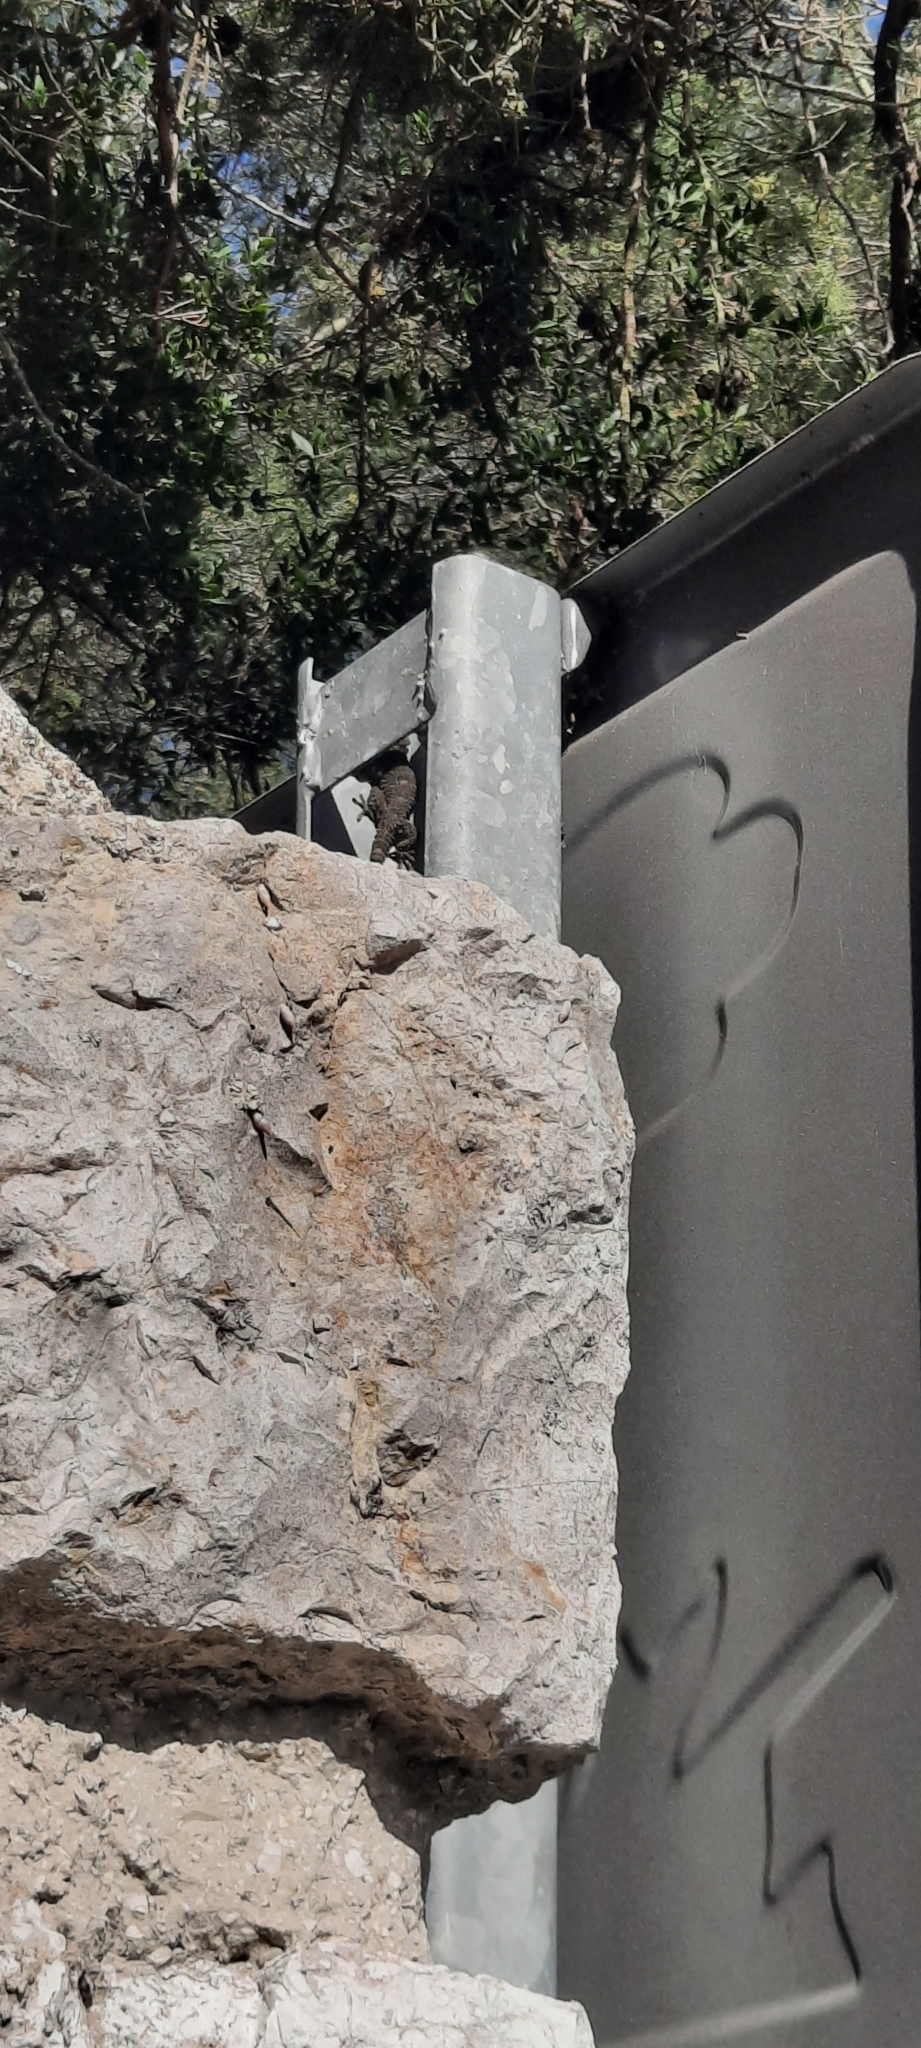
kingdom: Animalia
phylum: Chordata
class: Squamata
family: Phyllodactylidae
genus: Tarentola
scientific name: Tarentola mauritanica
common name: Moorish gecko
